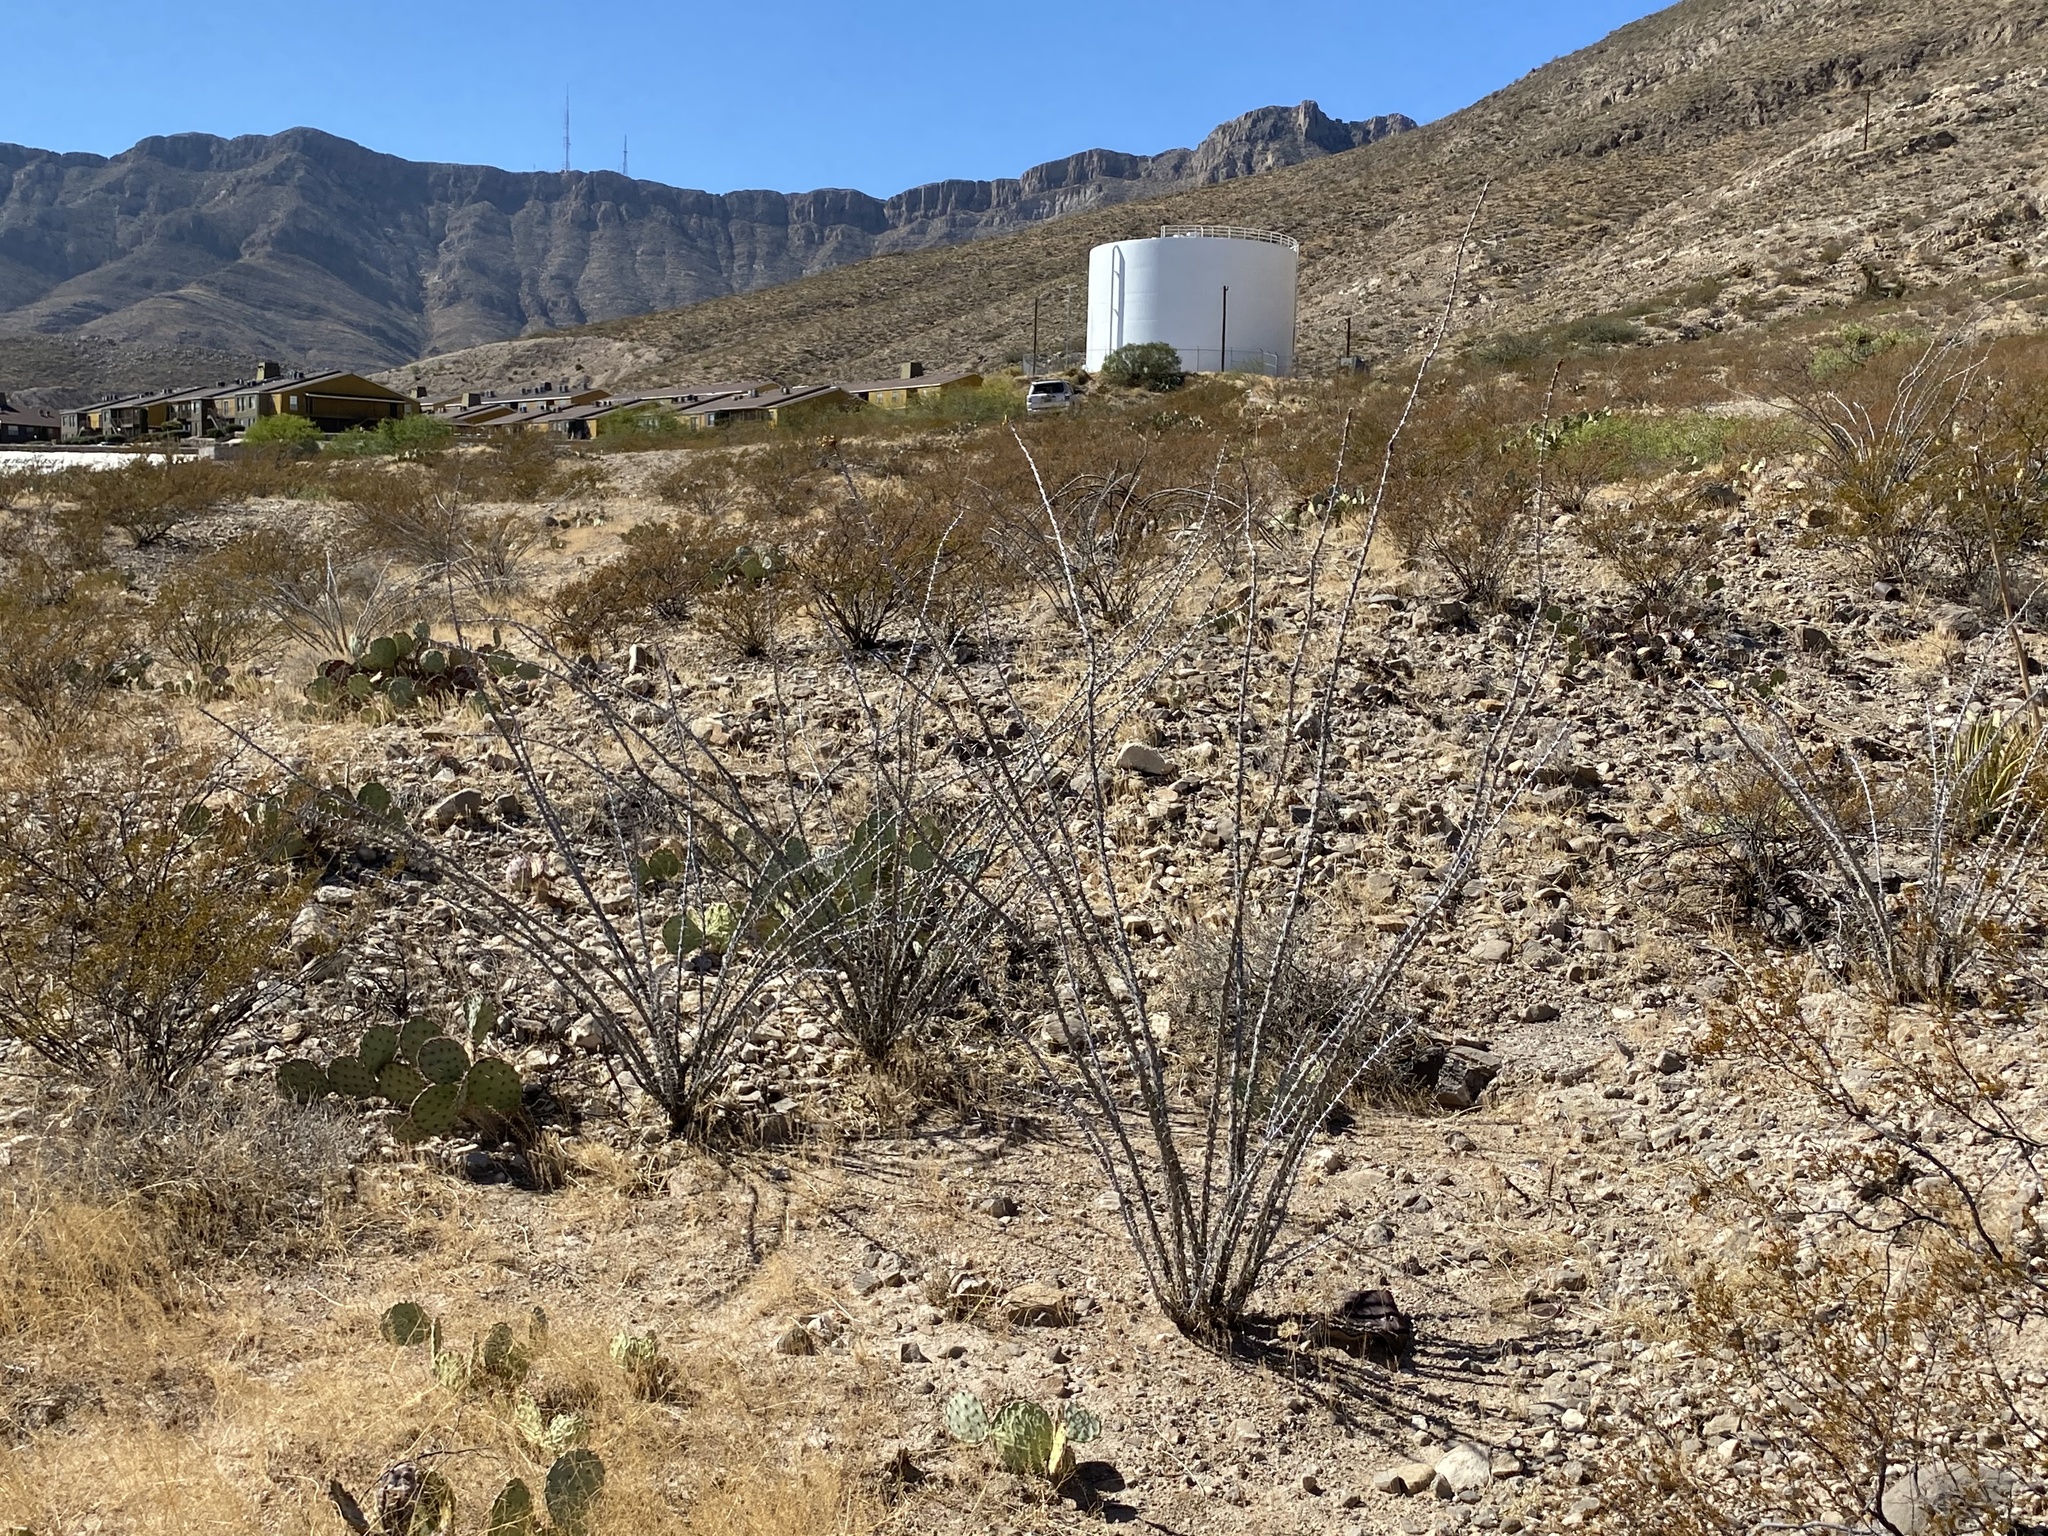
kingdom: Plantae
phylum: Tracheophyta
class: Magnoliopsida
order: Ericales
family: Fouquieriaceae
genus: Fouquieria
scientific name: Fouquieria splendens
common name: Vine-cactus
